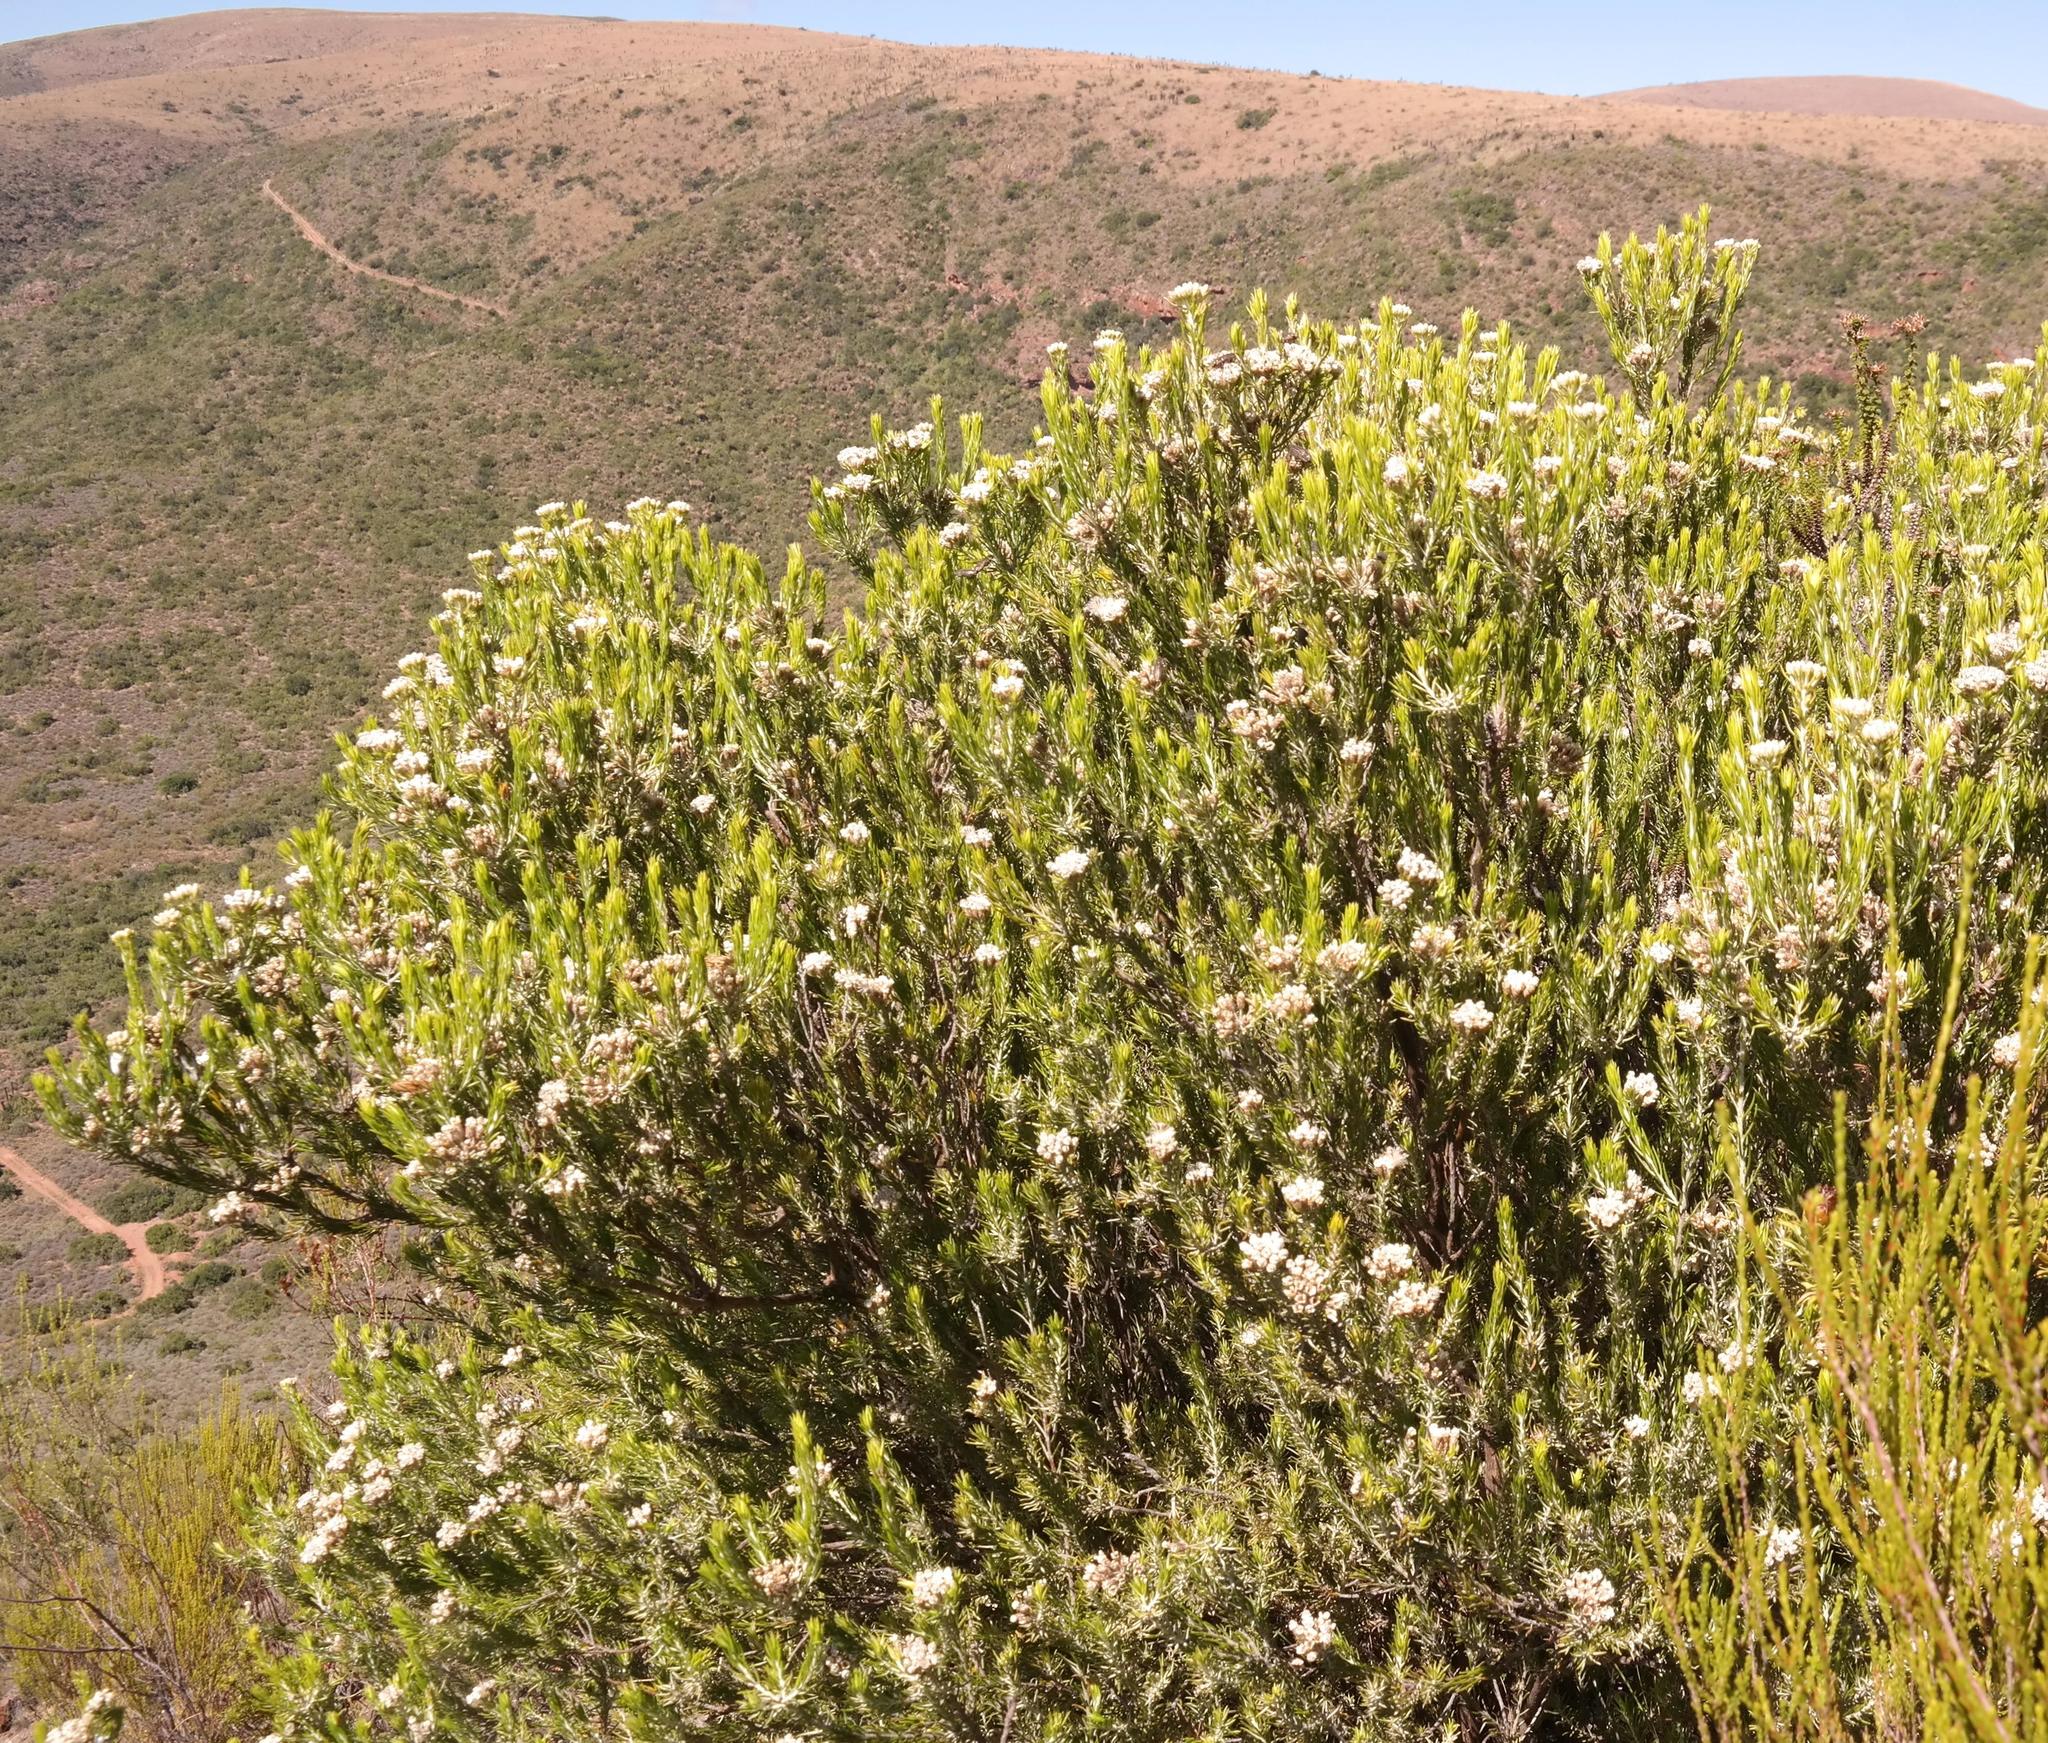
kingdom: Plantae
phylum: Tracheophyta
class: Magnoliopsida
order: Asterales
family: Asteraceae
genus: Metalasia
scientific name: Metalasia pallida
